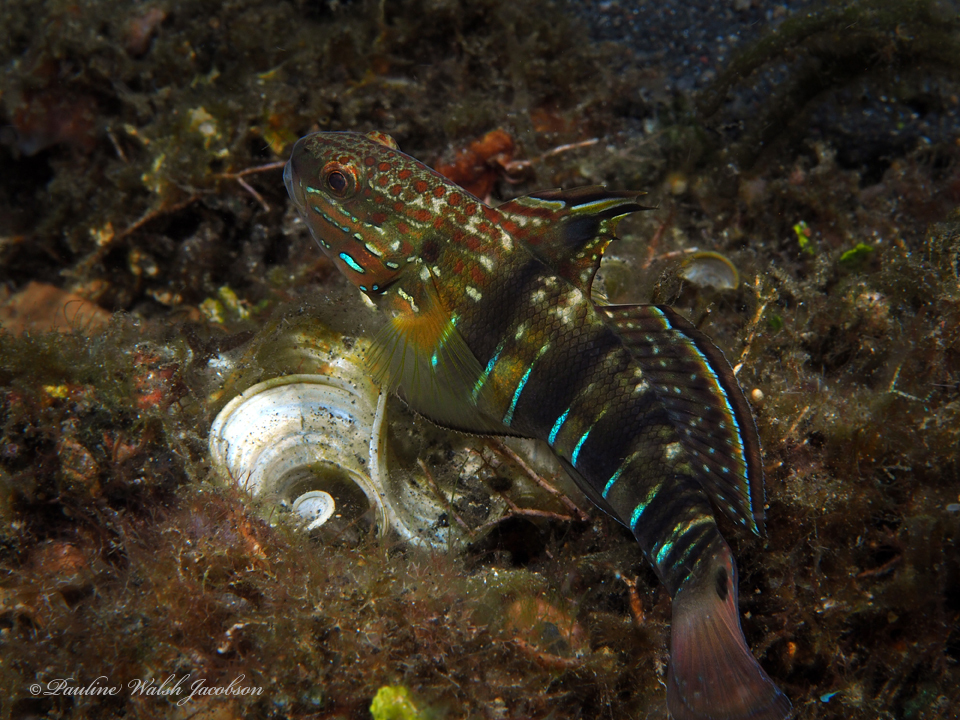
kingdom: Animalia
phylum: Chordata
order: Perciformes
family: Gobiidae
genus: Amblygobius
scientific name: Amblygobius phalaena
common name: Banded goby
